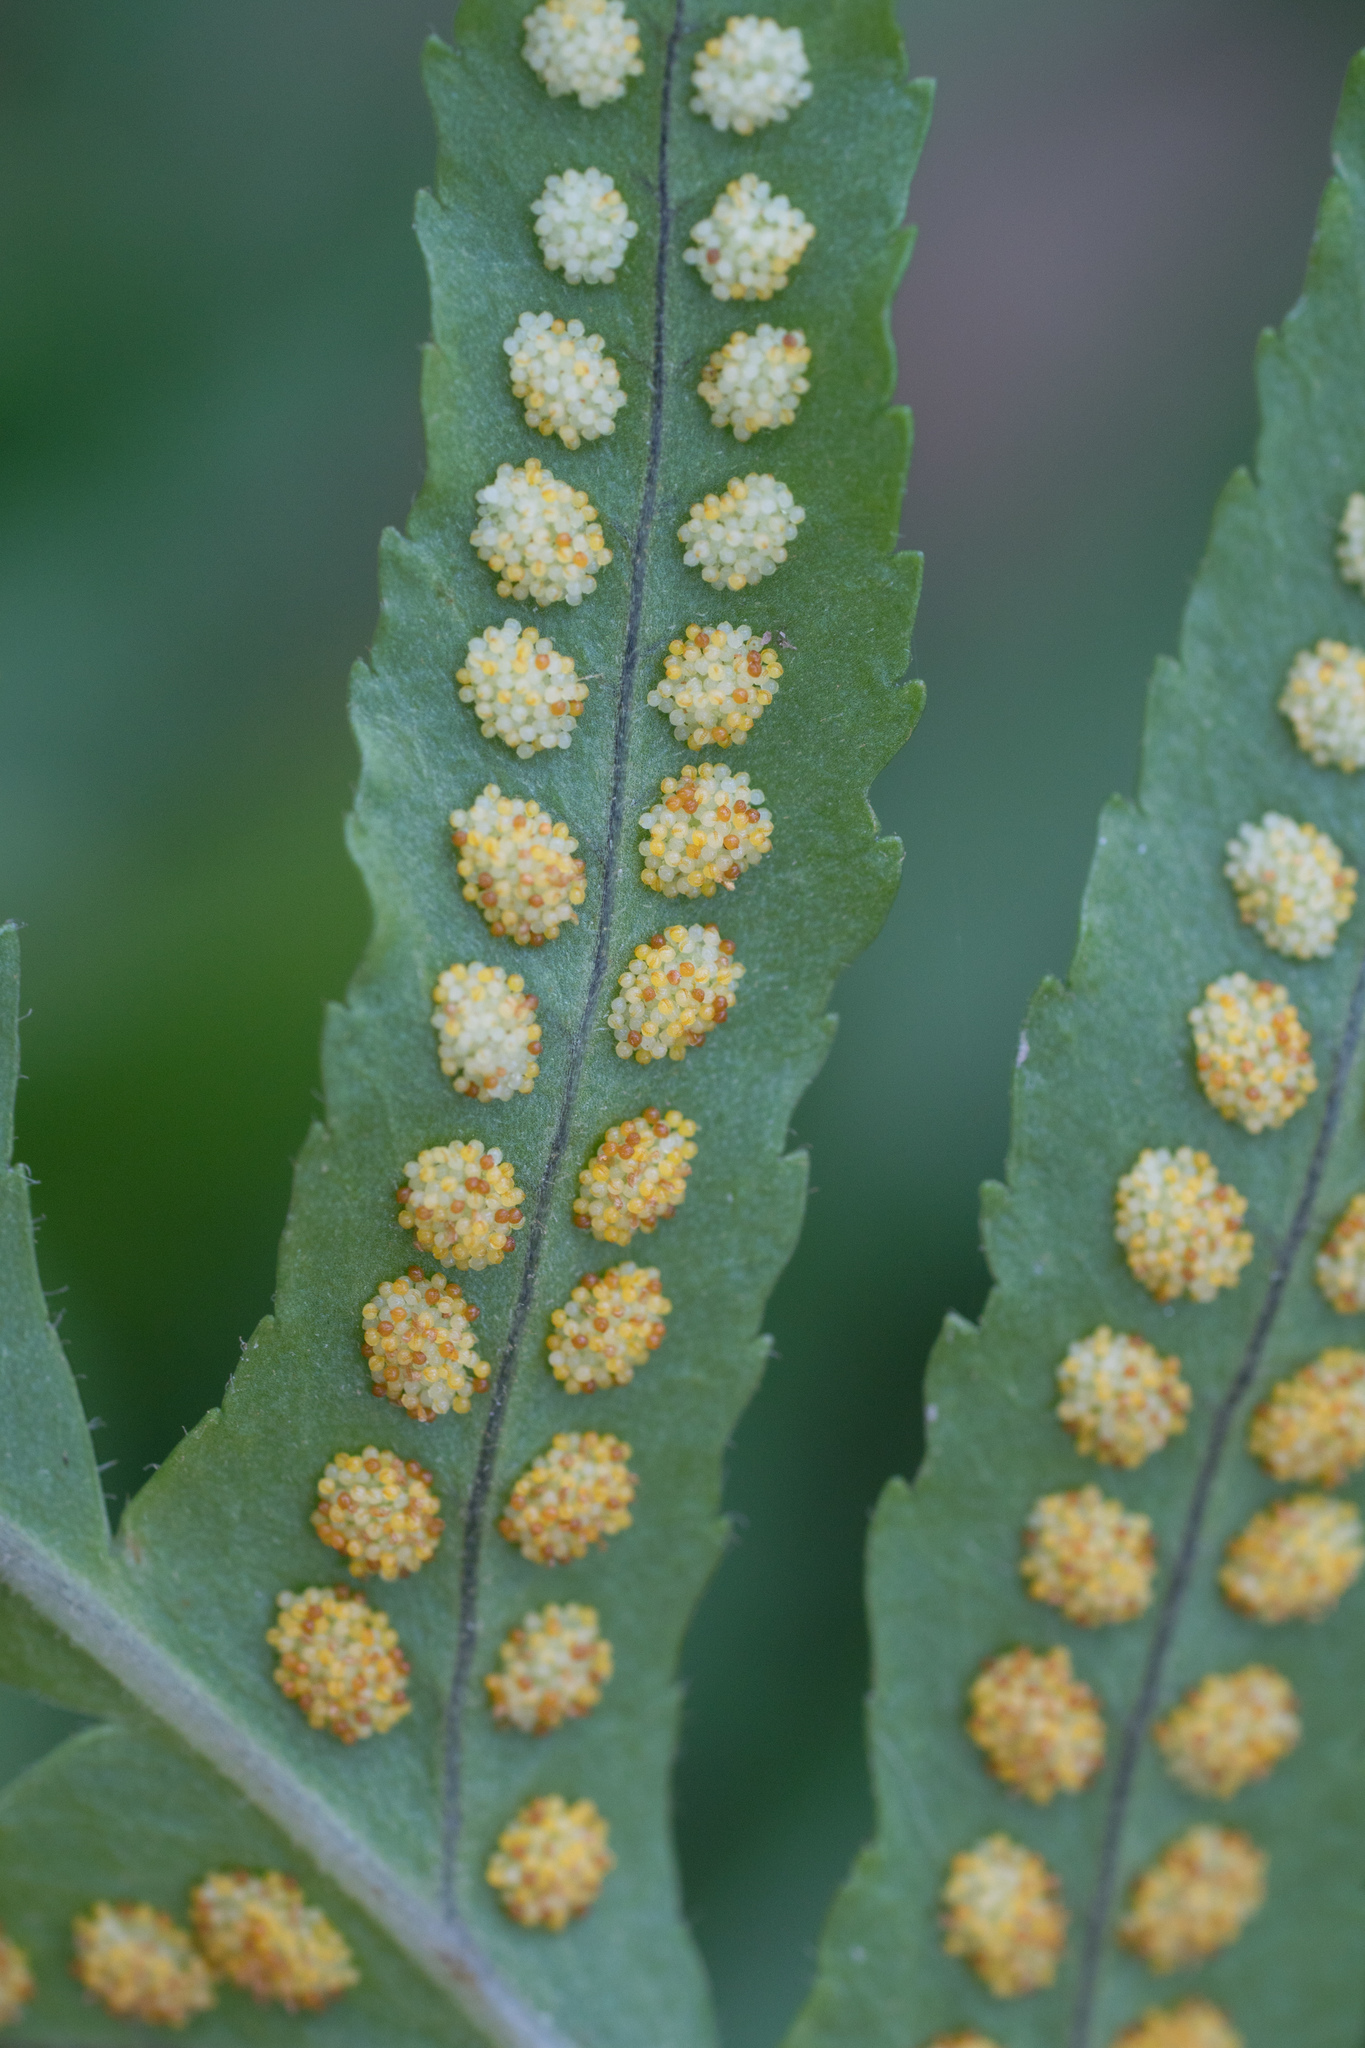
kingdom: Plantae
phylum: Tracheophyta
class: Polypodiopsida
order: Polypodiales
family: Polypodiaceae
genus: Polypodium
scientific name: Polypodium californicum
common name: California polypody
